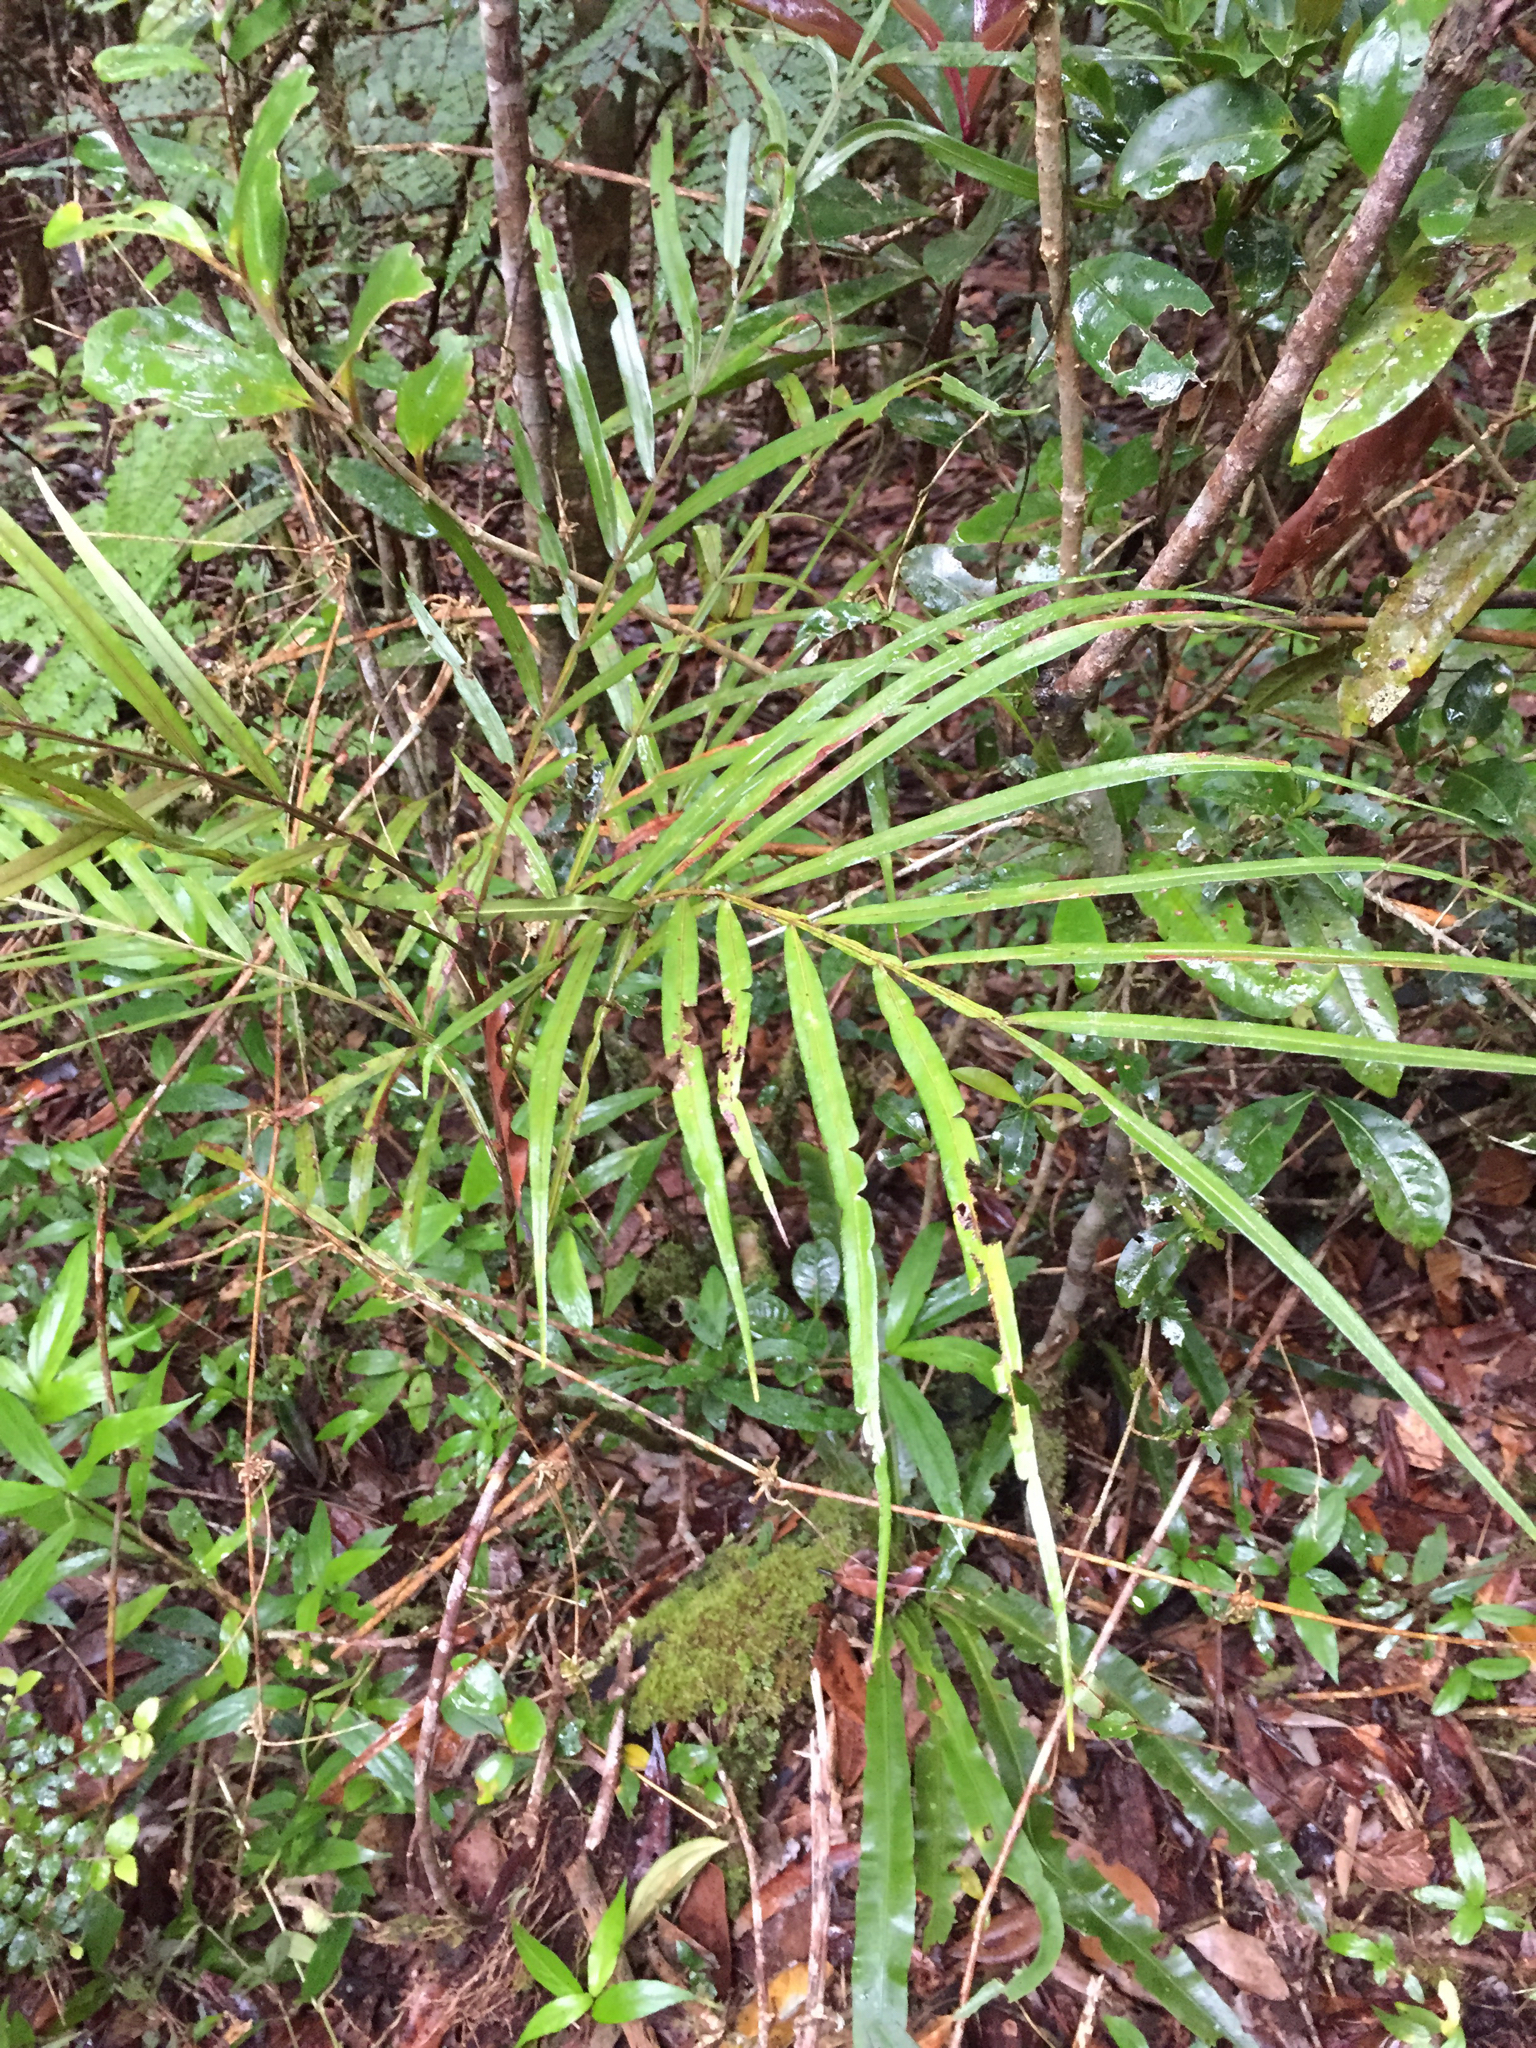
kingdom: Plantae
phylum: Tracheophyta
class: Magnoliopsida
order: Sapindales
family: Sapindaceae
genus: Filicium
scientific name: Filicium decipiens
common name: Ferntree
